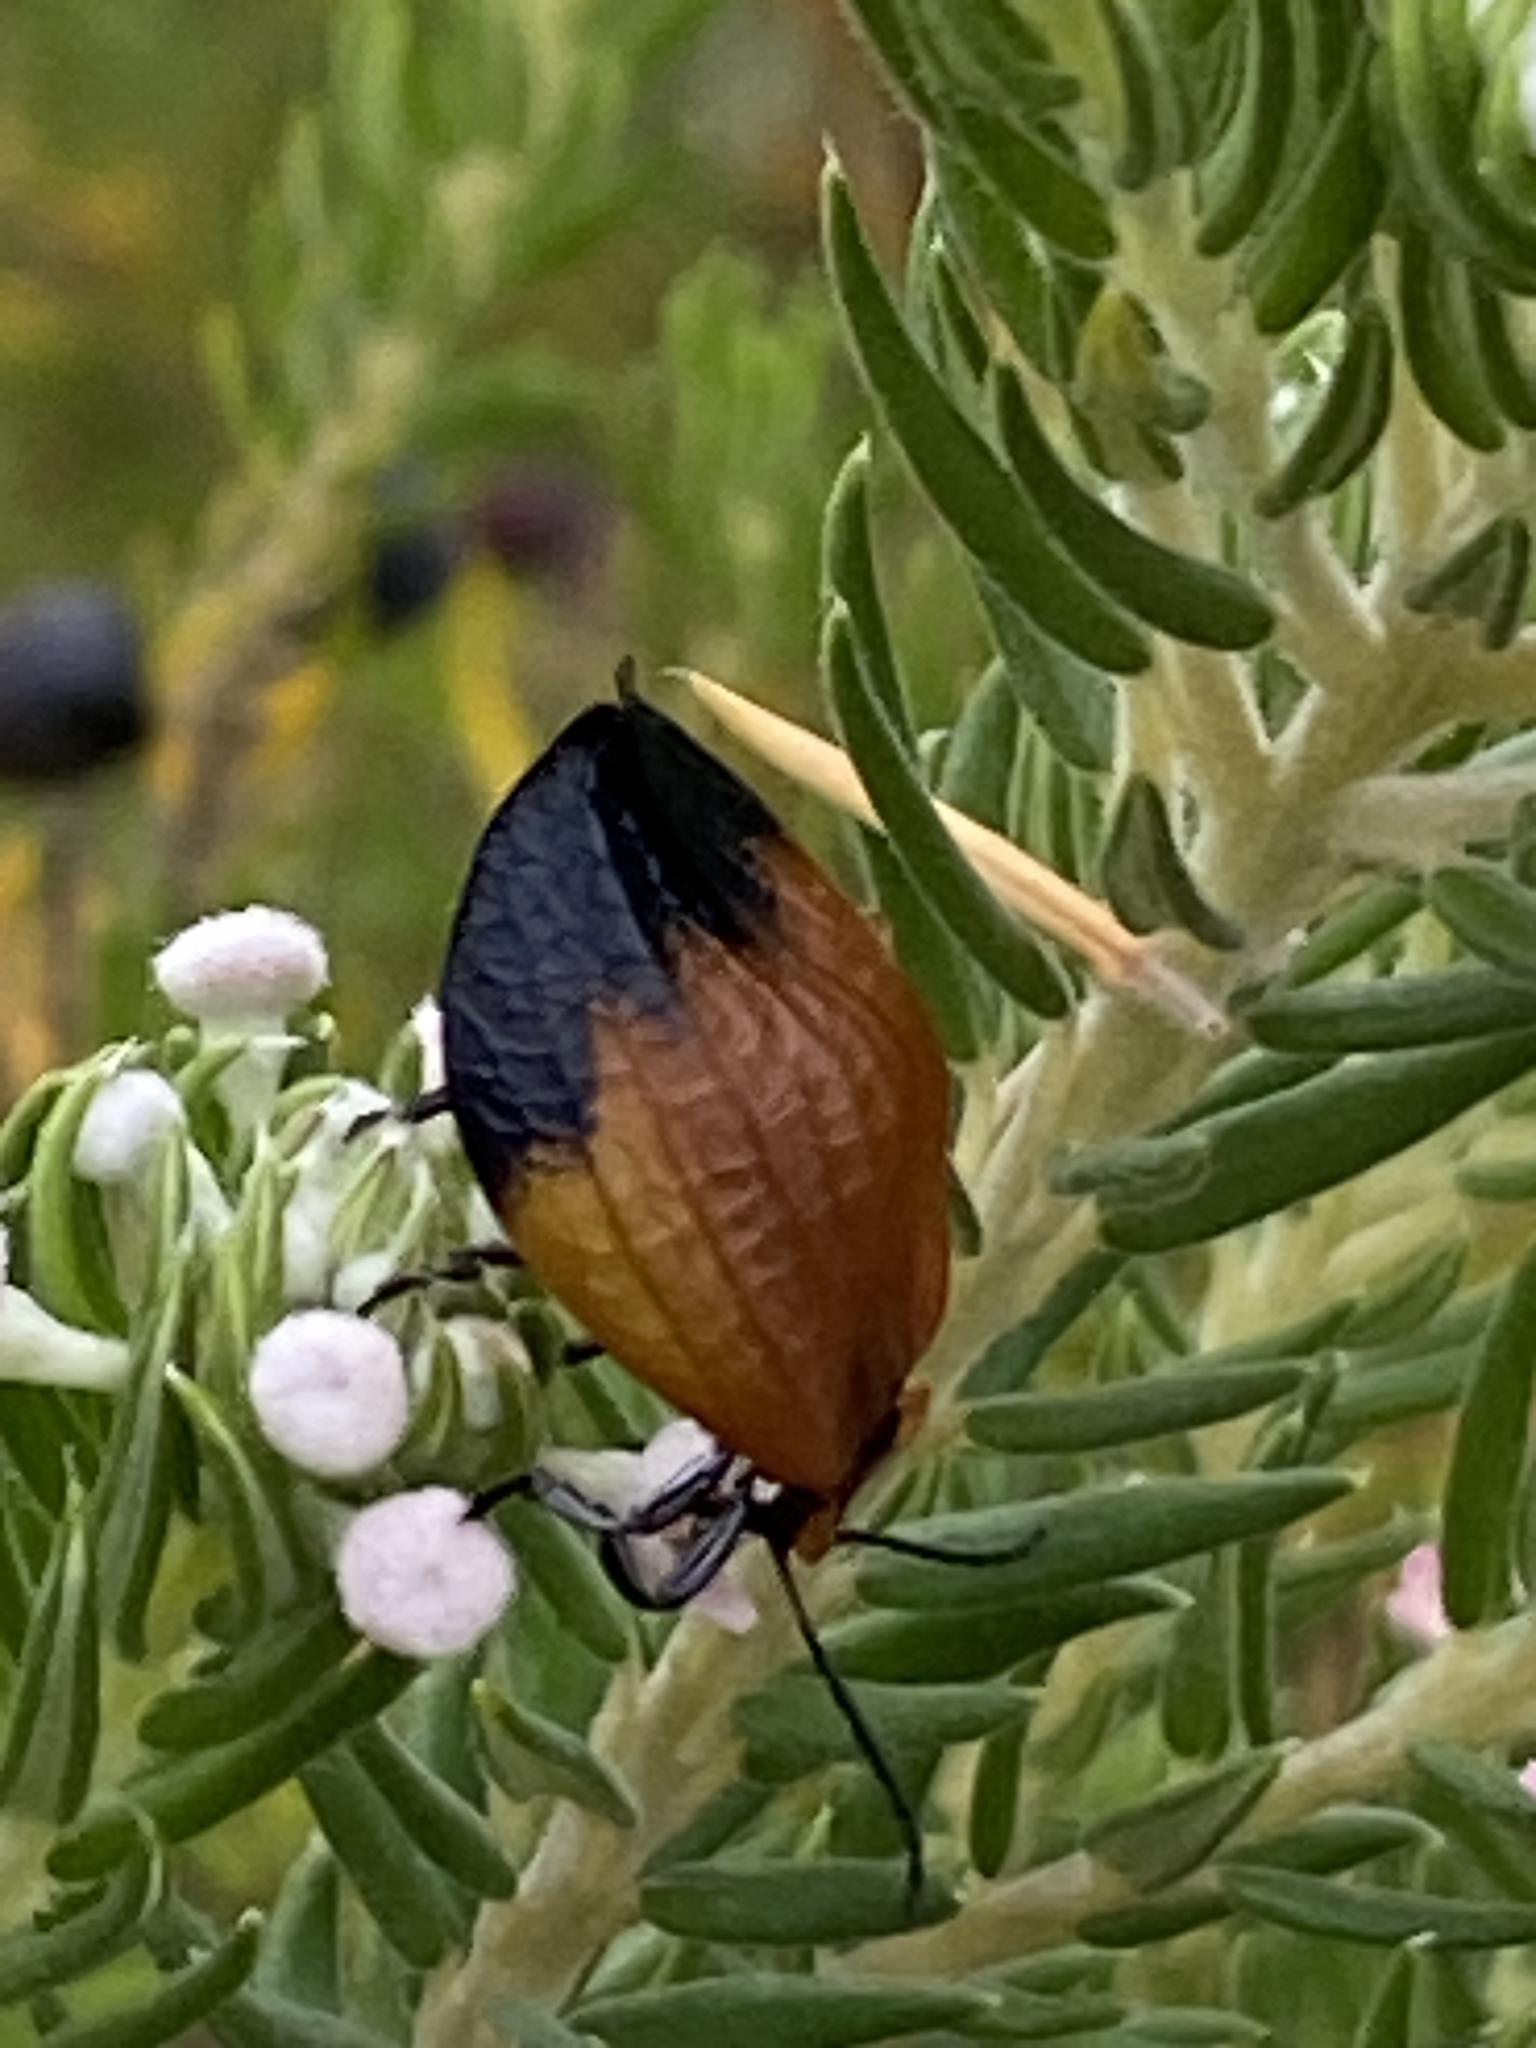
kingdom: Animalia
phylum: Arthropoda
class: Insecta
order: Coleoptera
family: Lycidae
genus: Lycus
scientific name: Lycus
